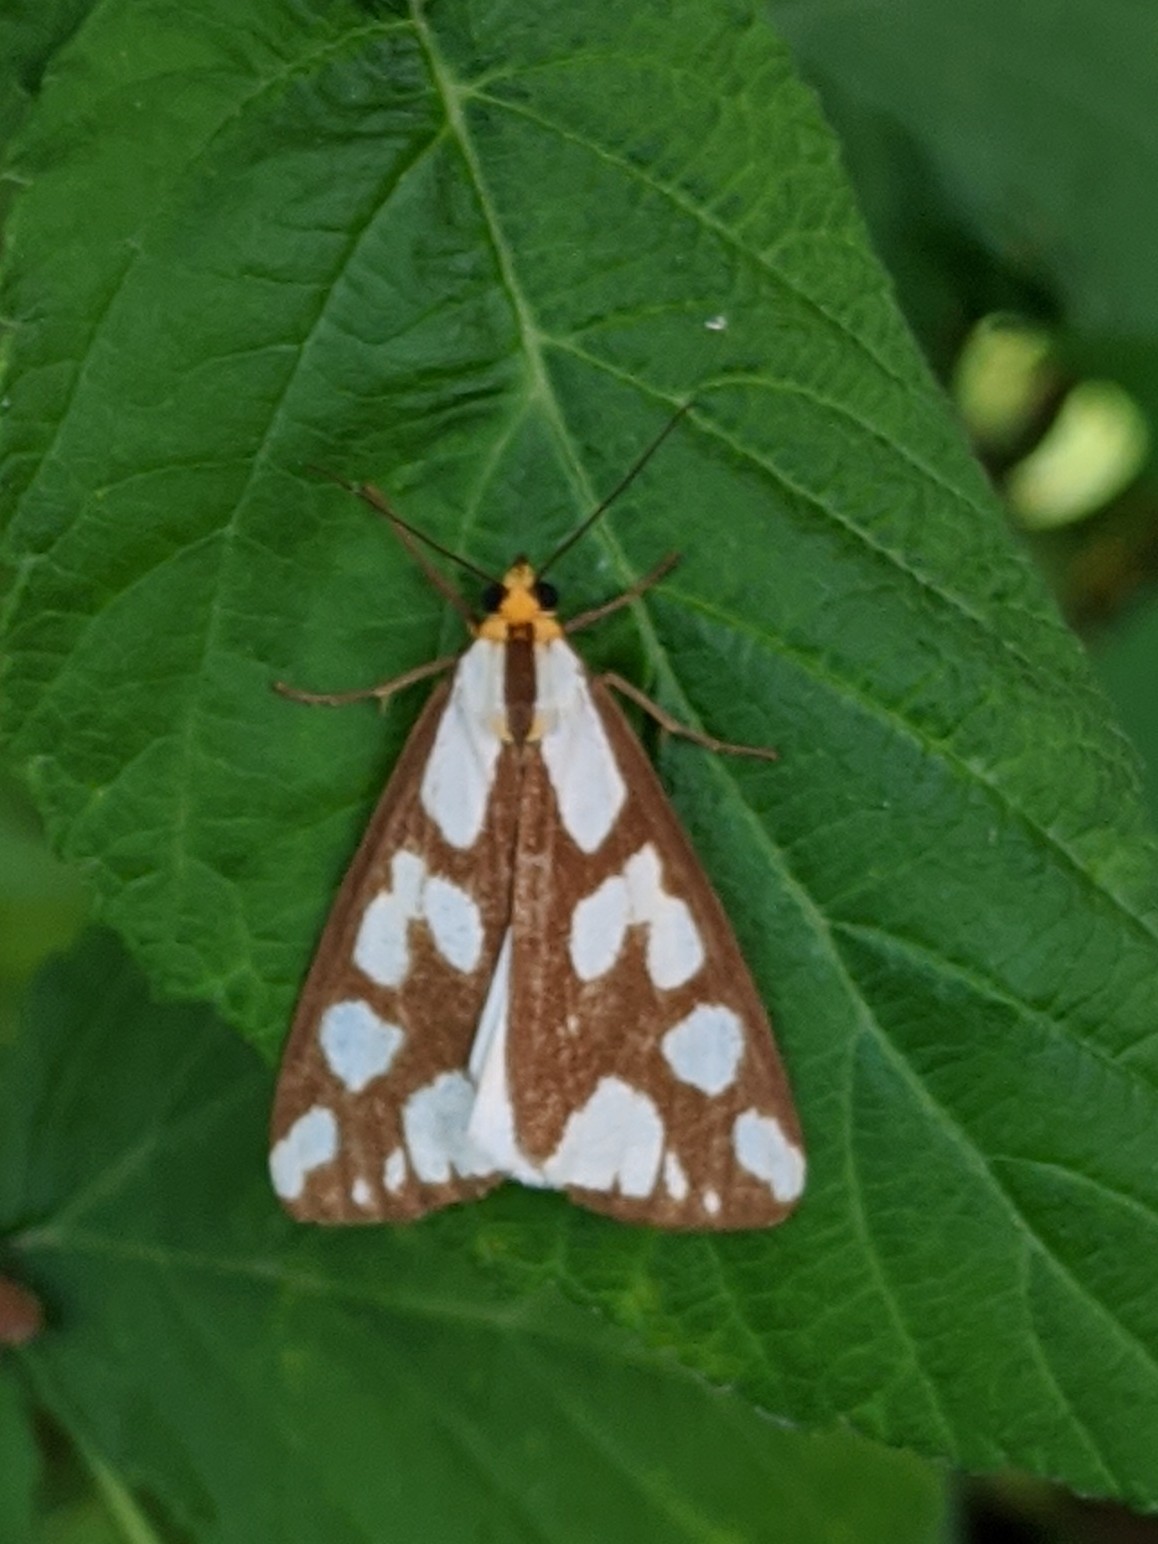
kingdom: Animalia
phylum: Arthropoda
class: Insecta
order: Lepidoptera
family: Erebidae
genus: Haploa
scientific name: Haploa confusa
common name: Confused haploa moth
